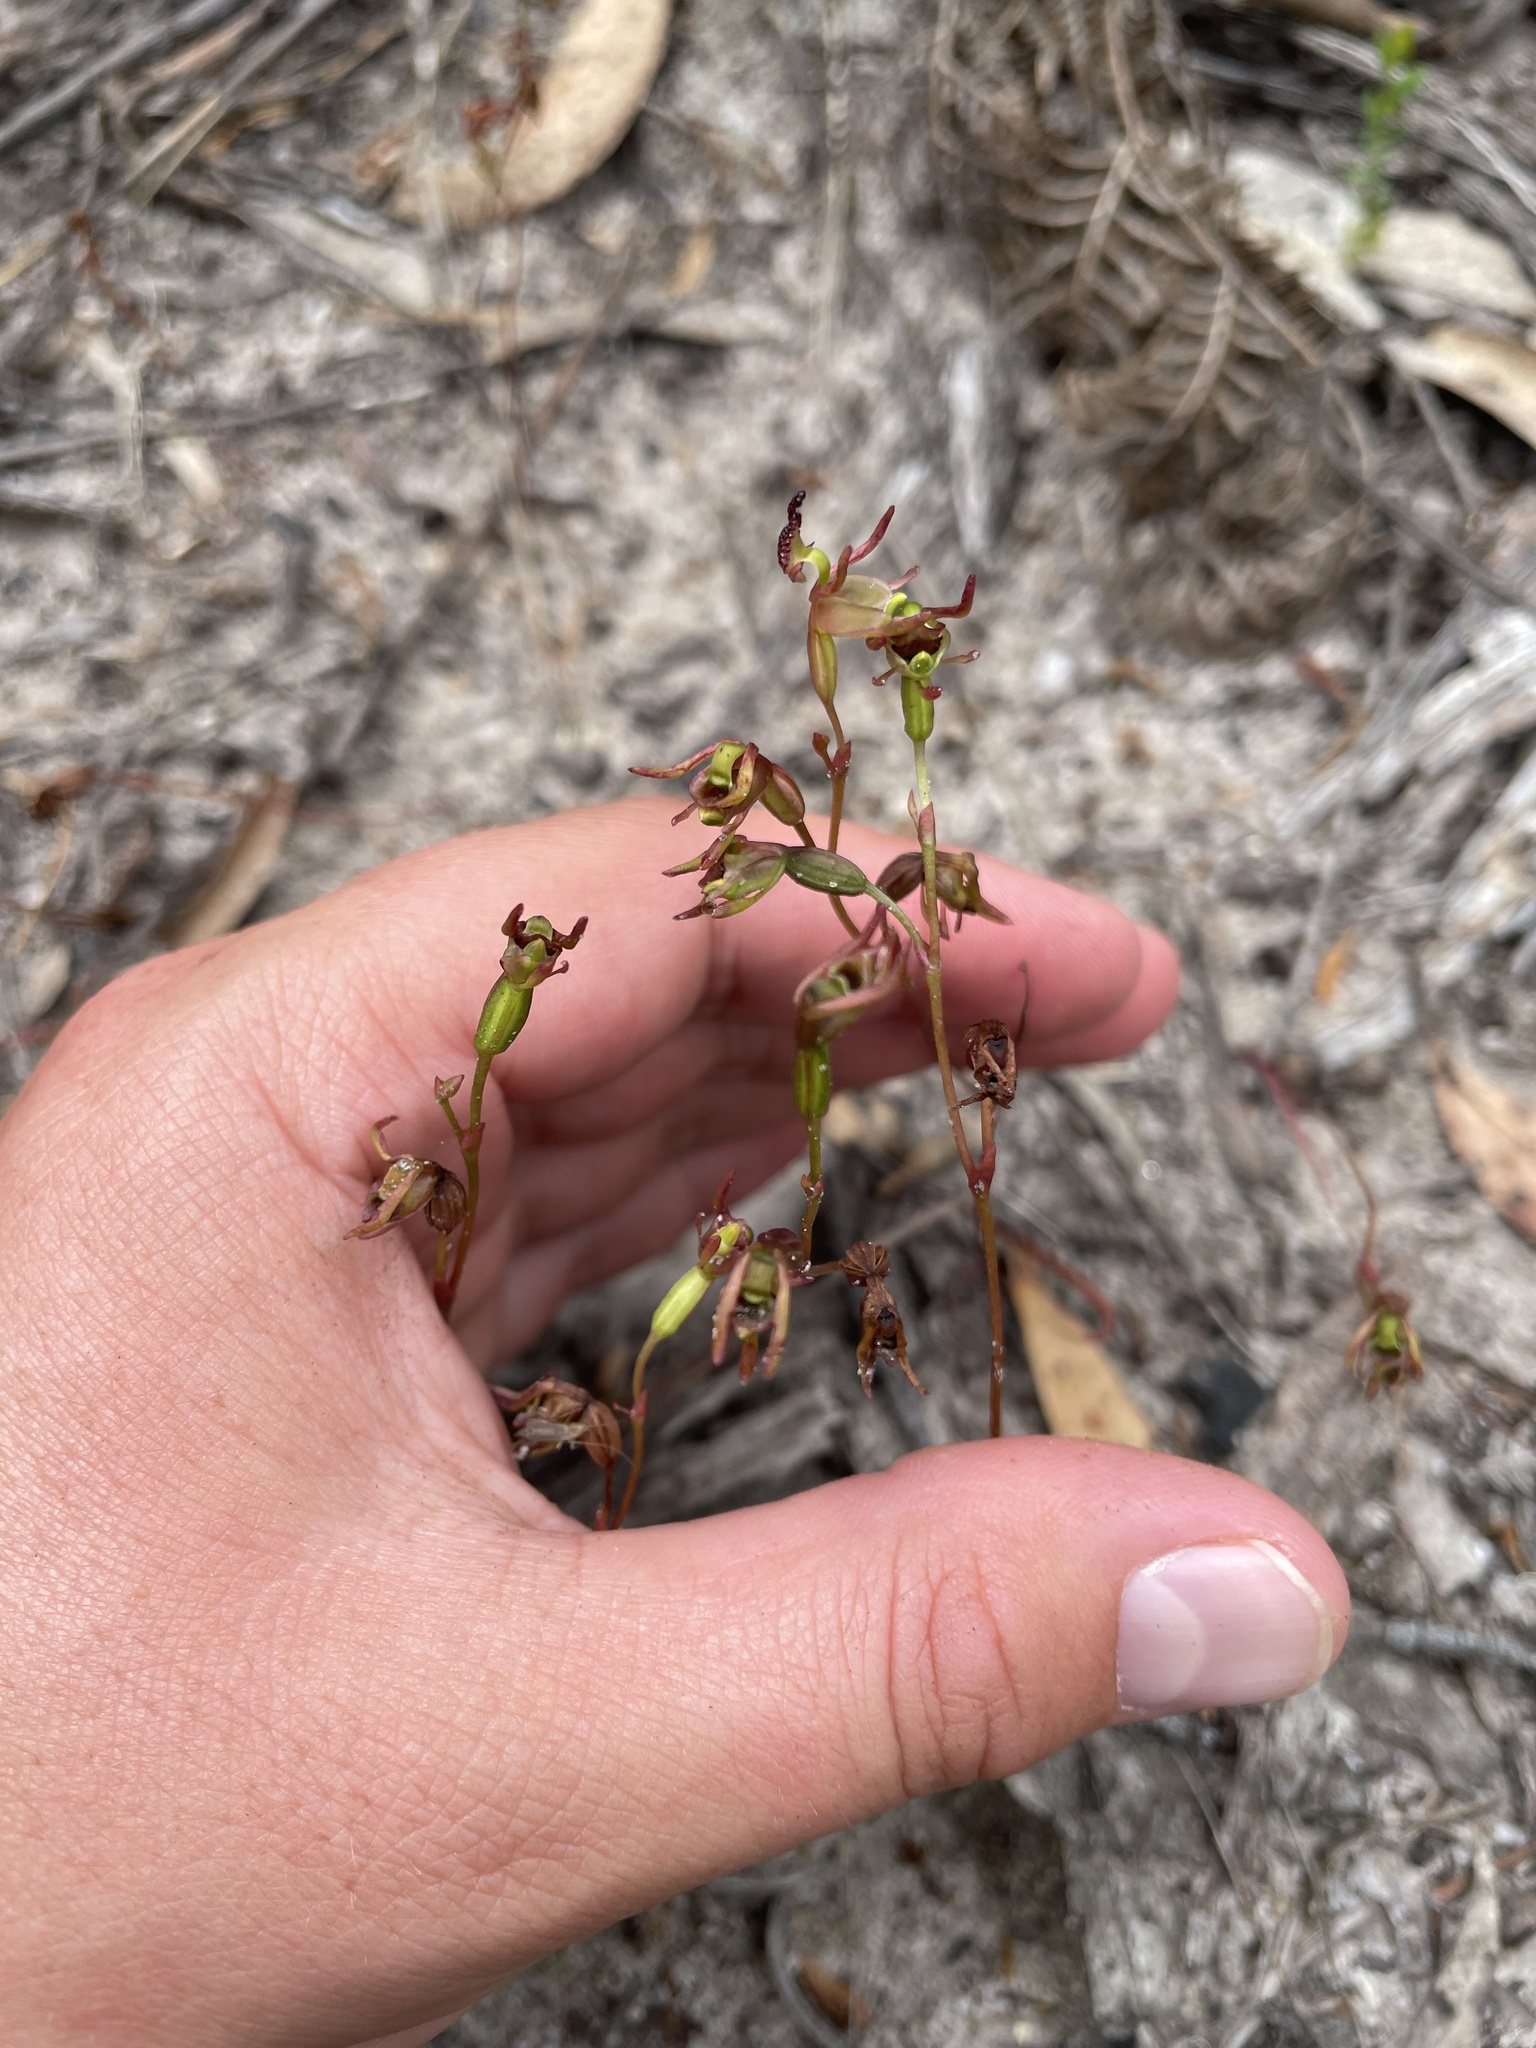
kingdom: Plantae
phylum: Tracheophyta
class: Liliopsida
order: Asparagales
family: Orchidaceae
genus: Caleana
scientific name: Caleana minor
